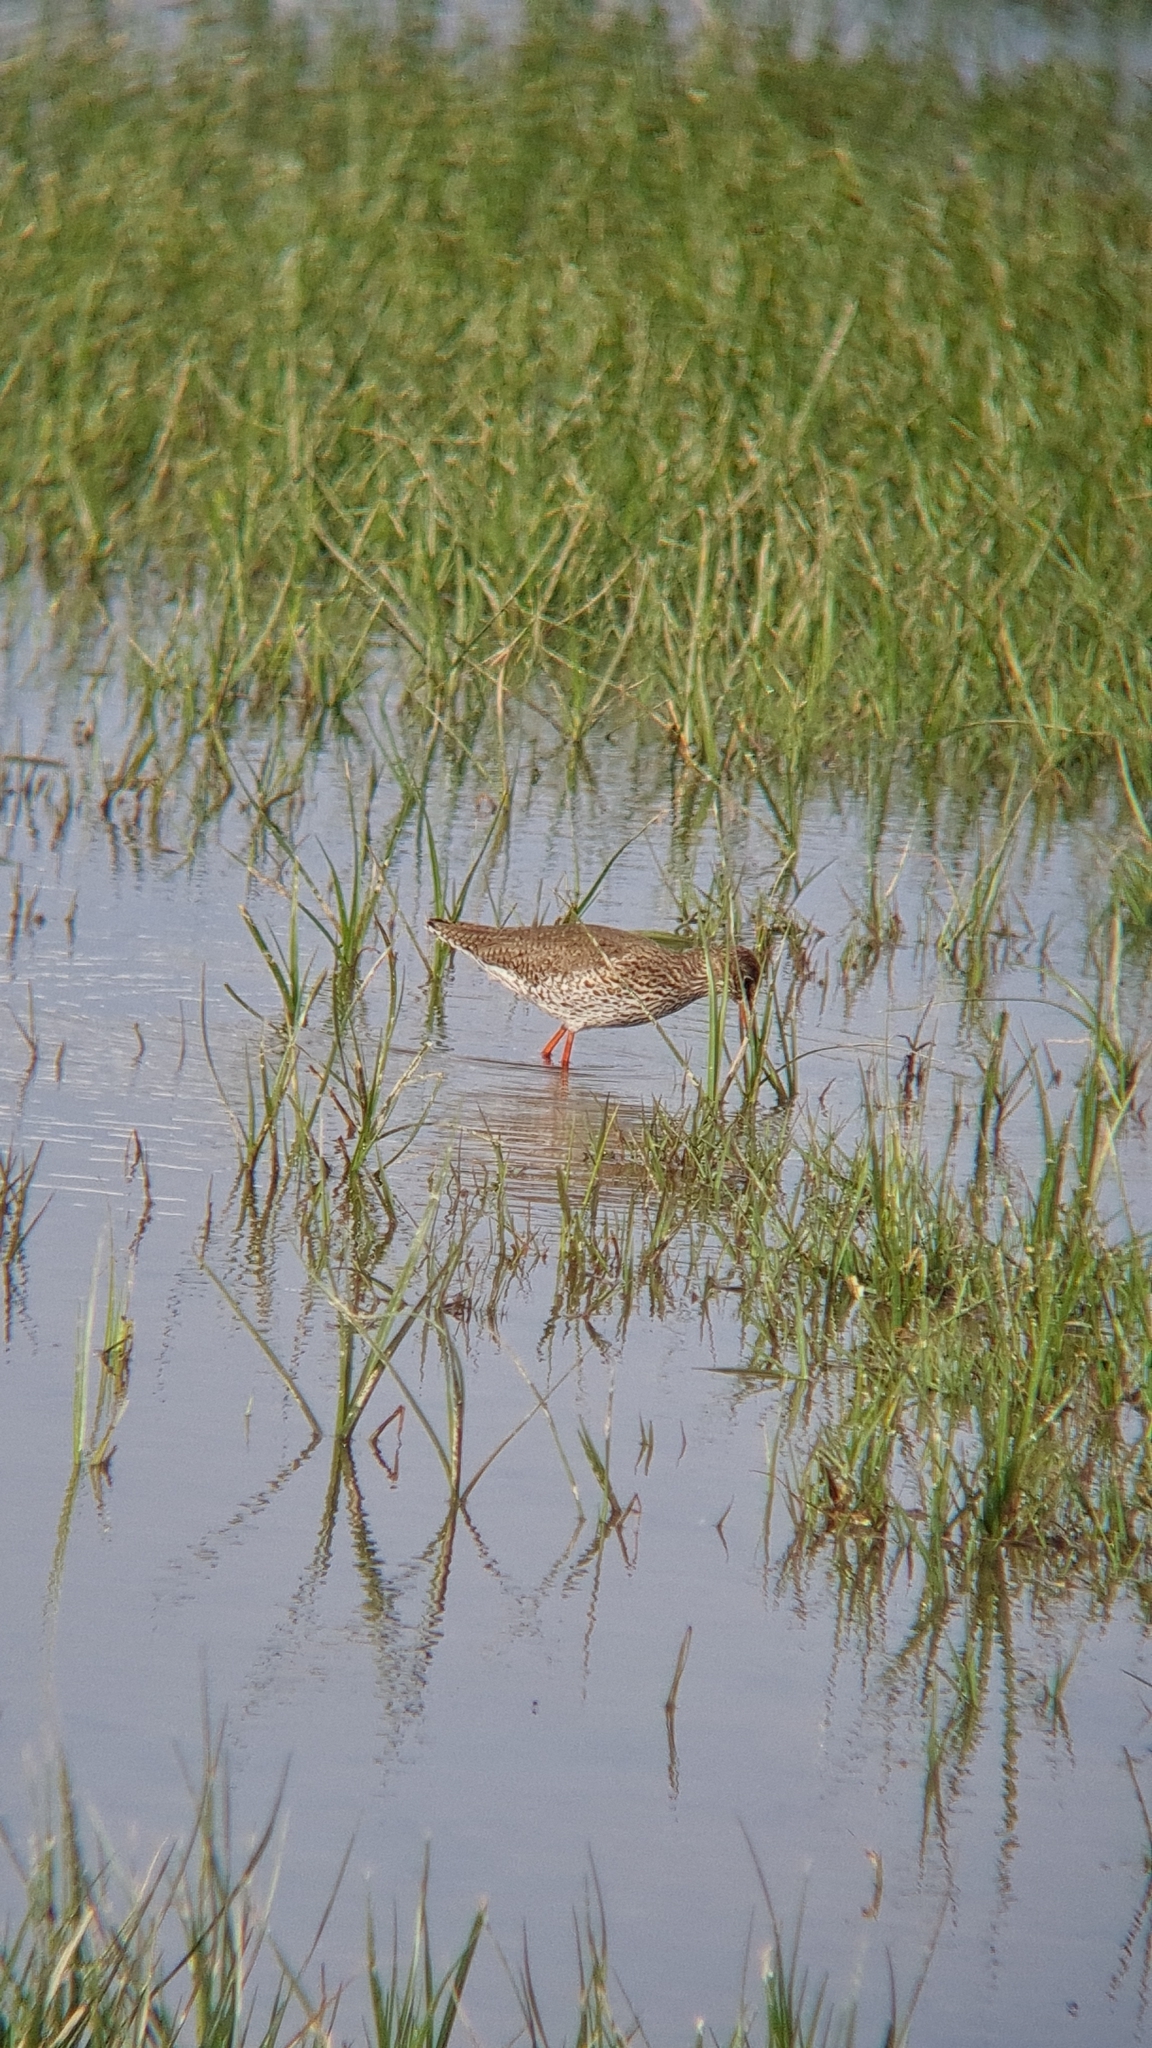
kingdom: Animalia
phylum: Chordata
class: Aves
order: Charadriiformes
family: Scolopacidae
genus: Tringa
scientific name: Tringa totanus
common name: Common redshank
